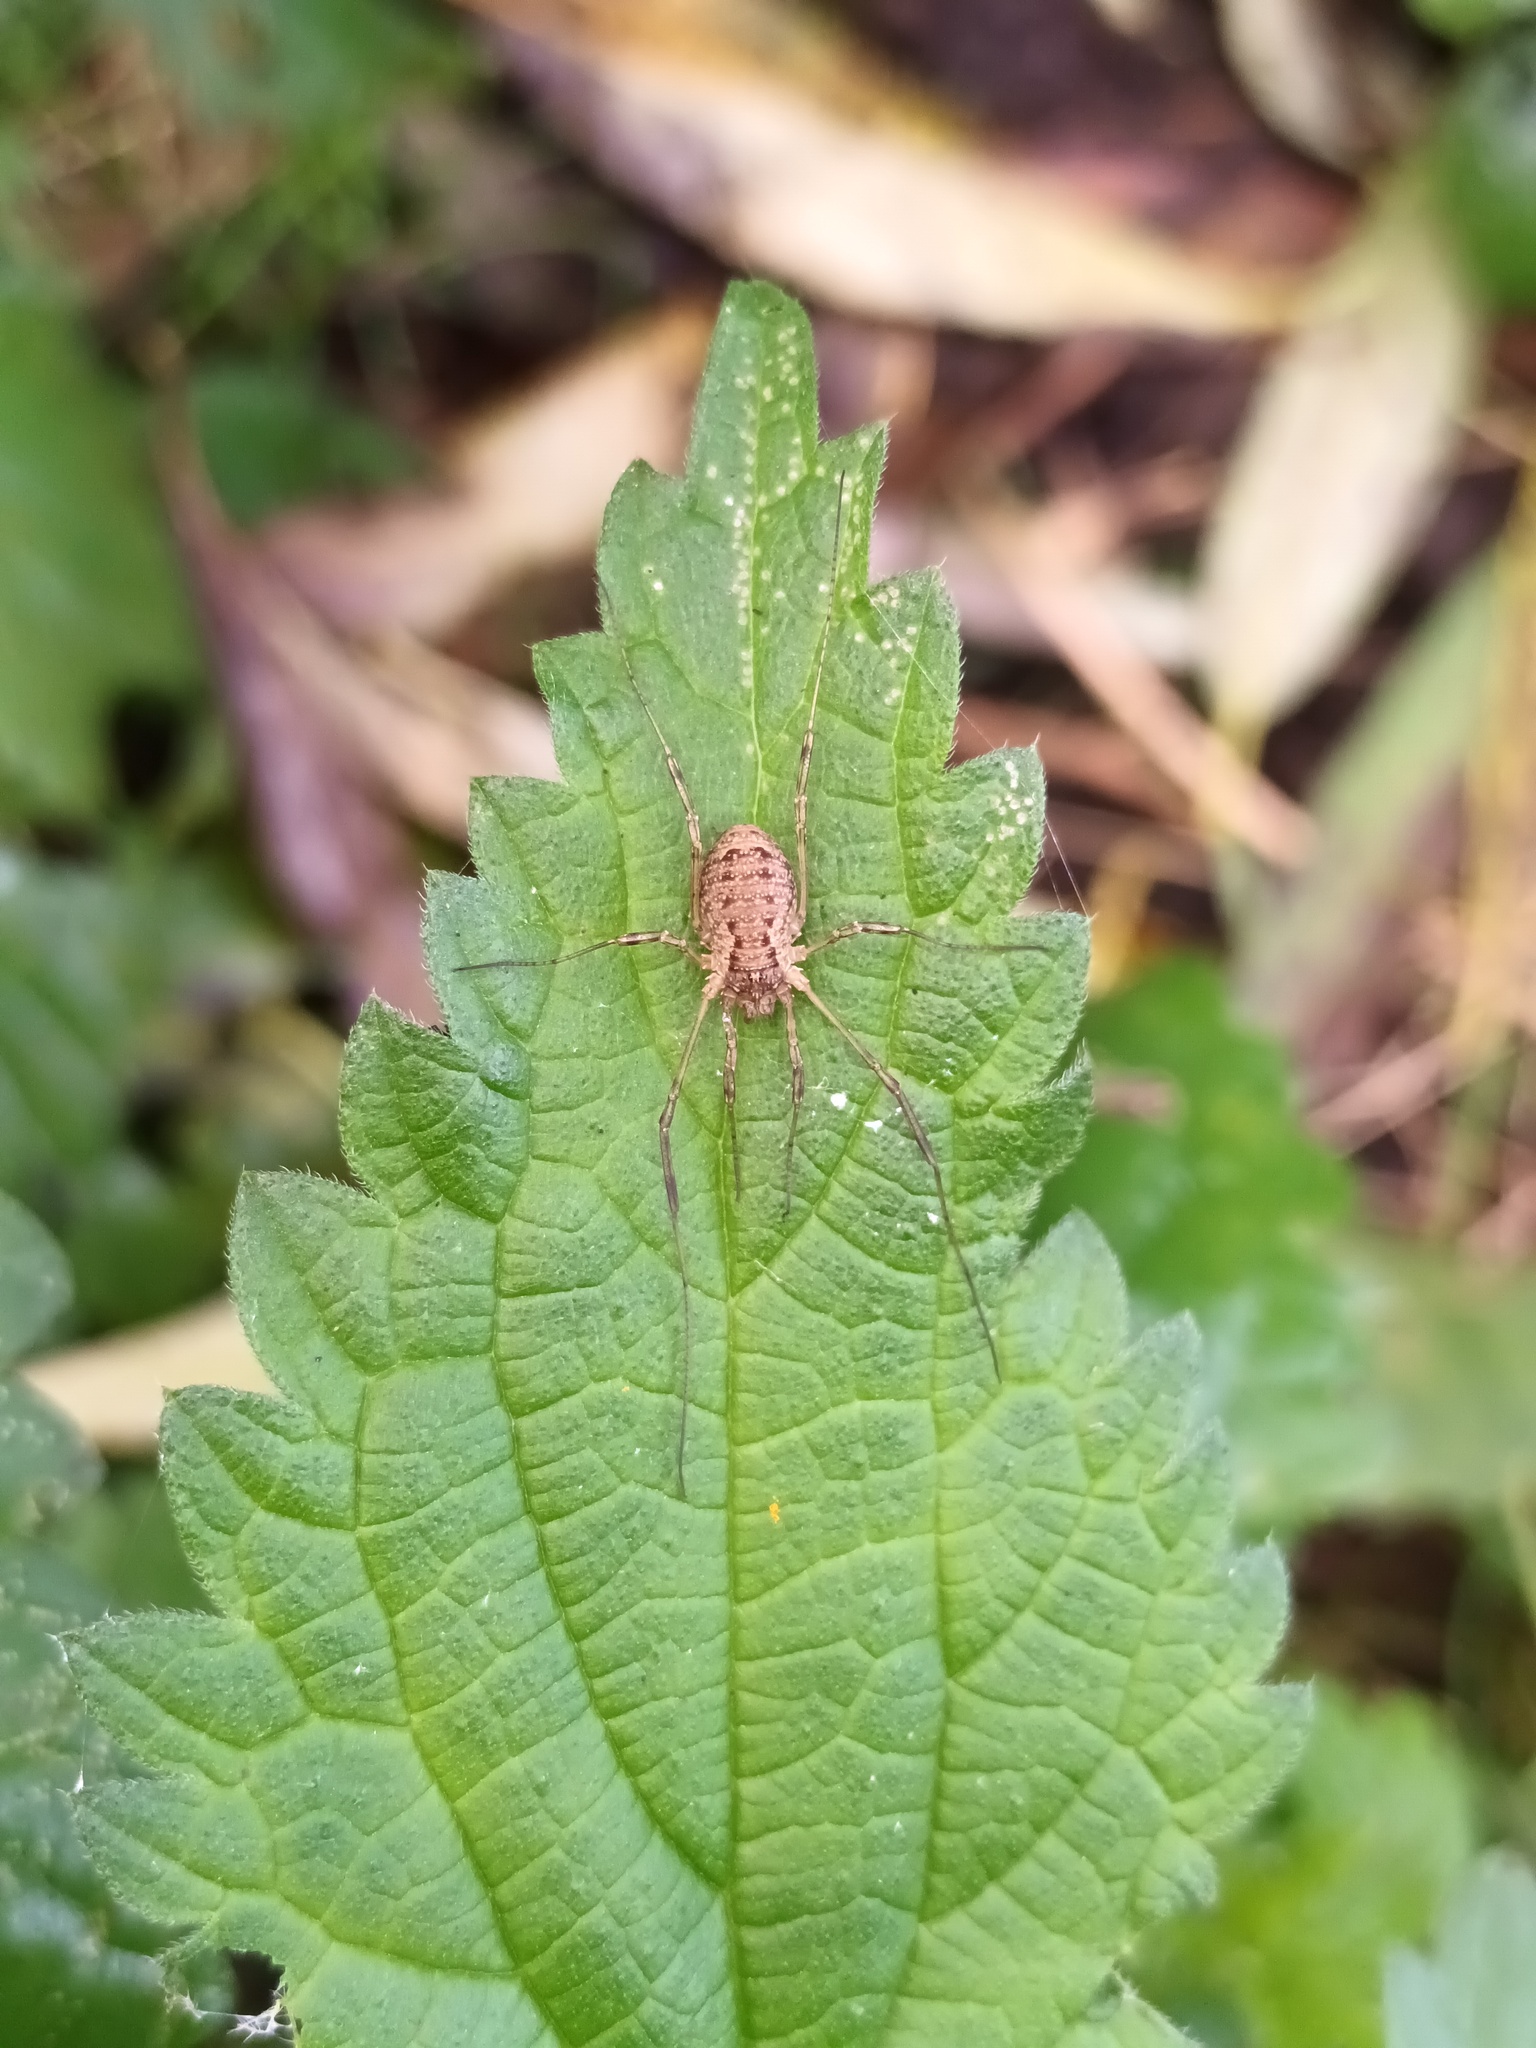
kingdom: Animalia
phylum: Arthropoda
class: Arachnida
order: Opiliones
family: Phalangiidae
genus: Oligolophus
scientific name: Oligolophus tridens
